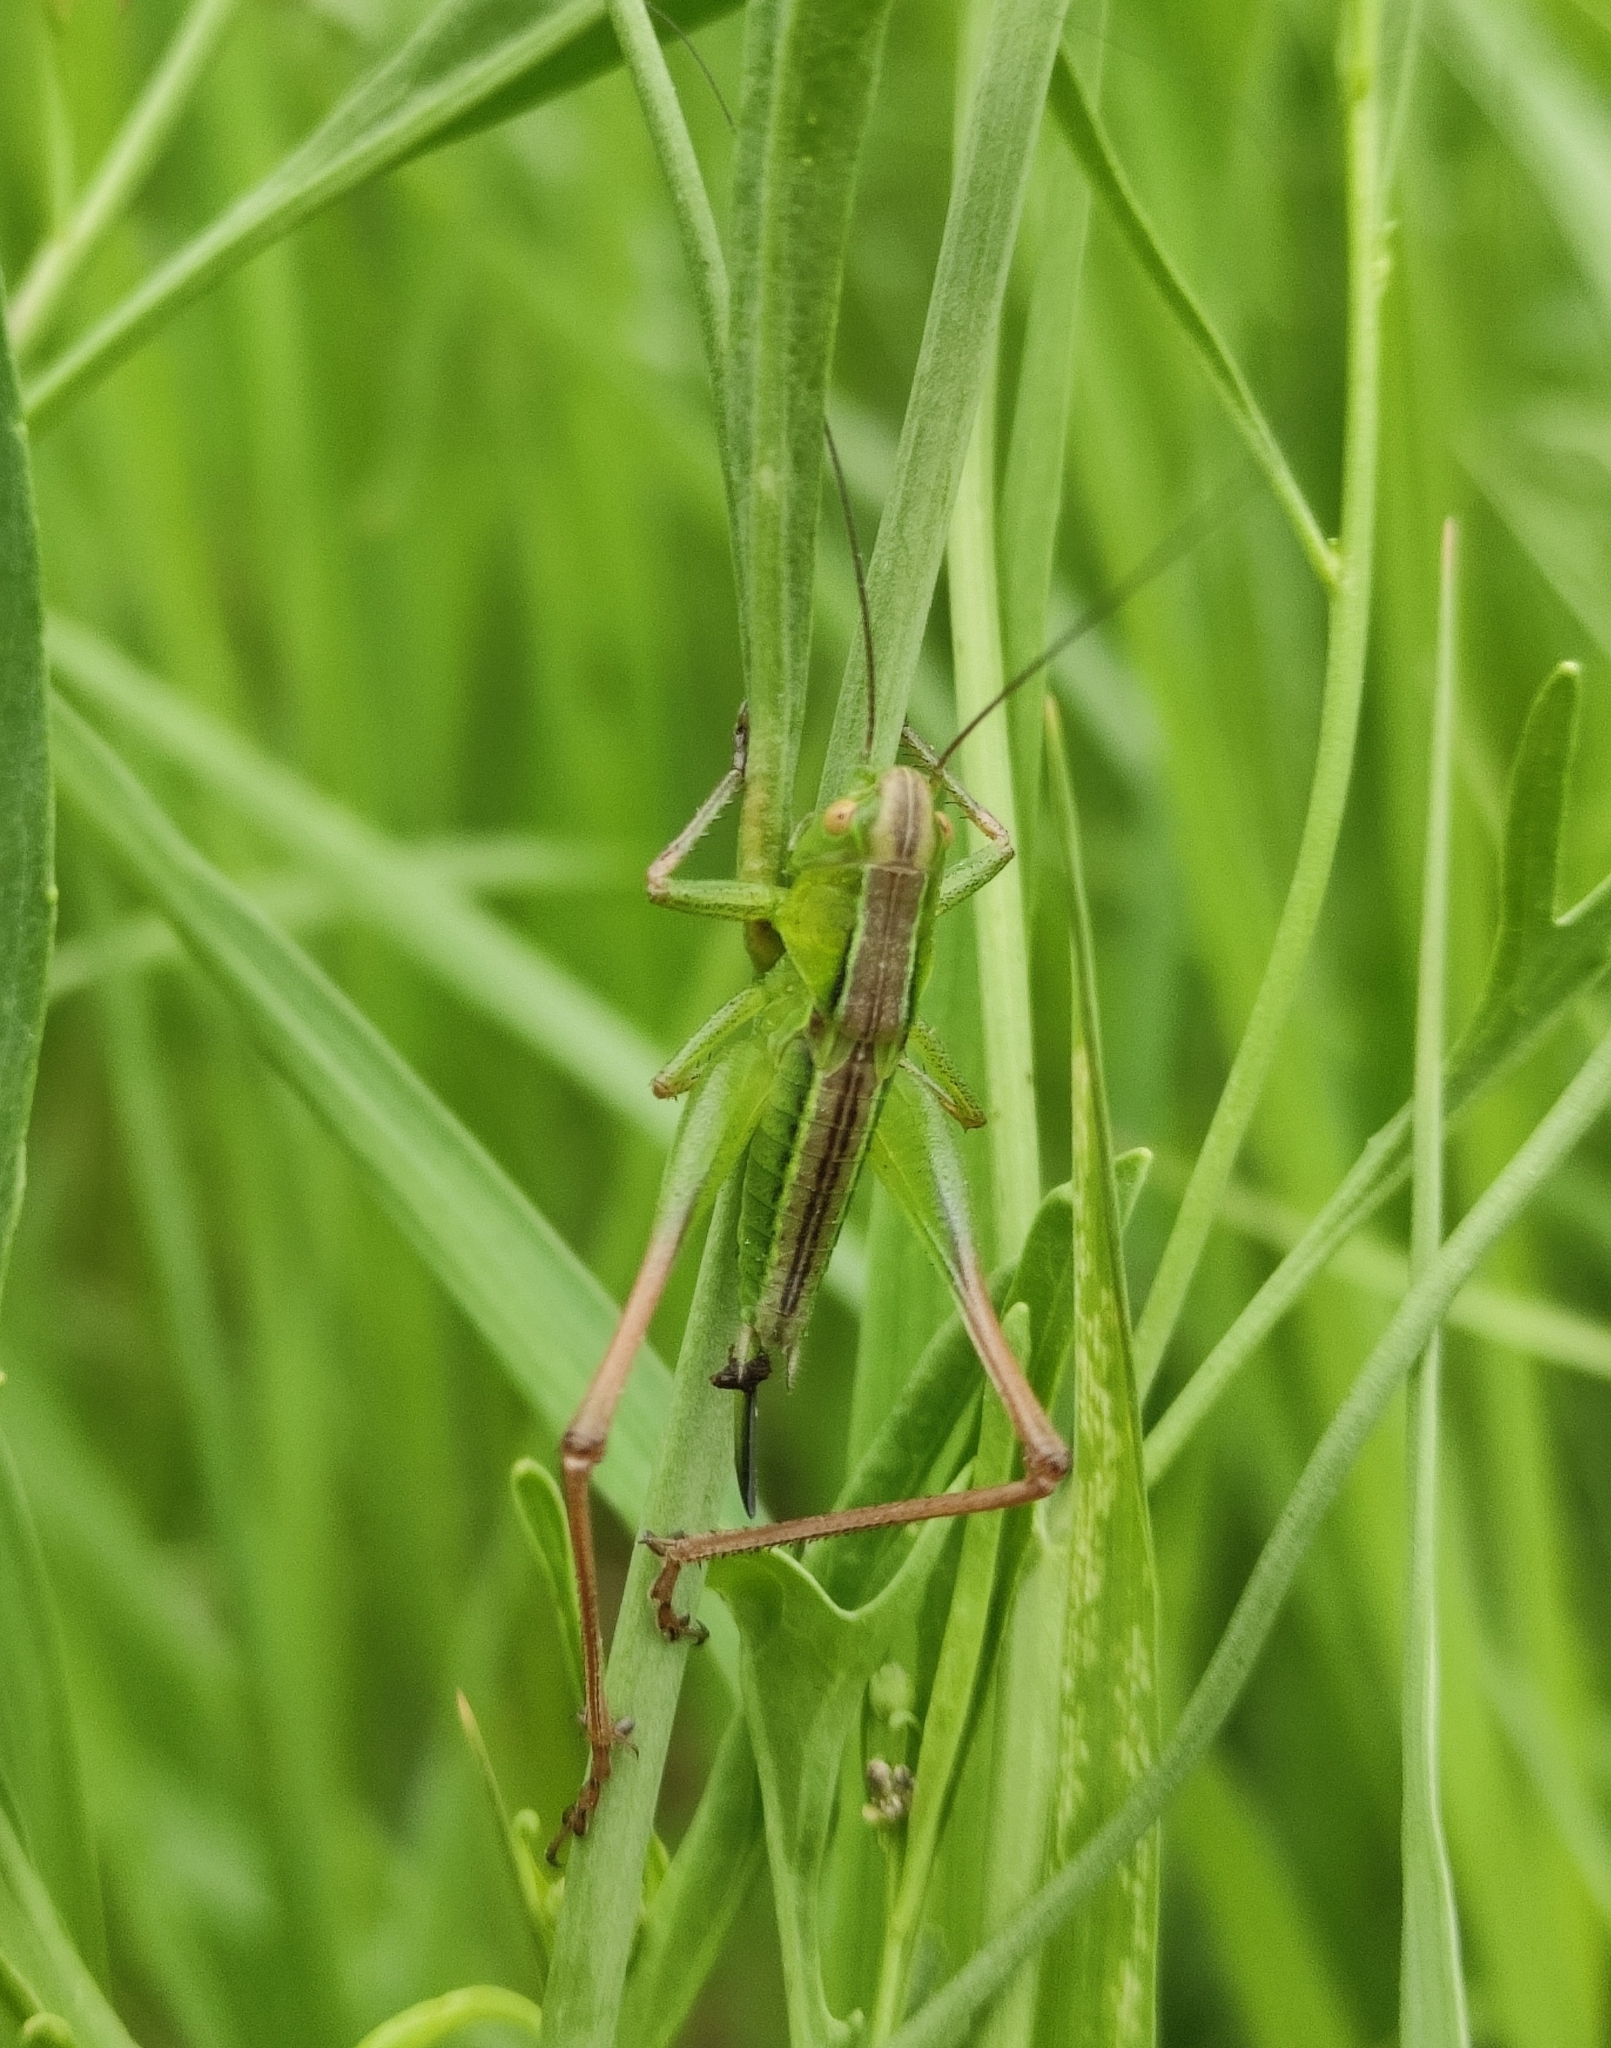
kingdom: Animalia
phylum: Arthropoda
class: Insecta
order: Orthoptera
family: Tettigoniidae
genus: Bicolorana
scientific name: Bicolorana bicolor
